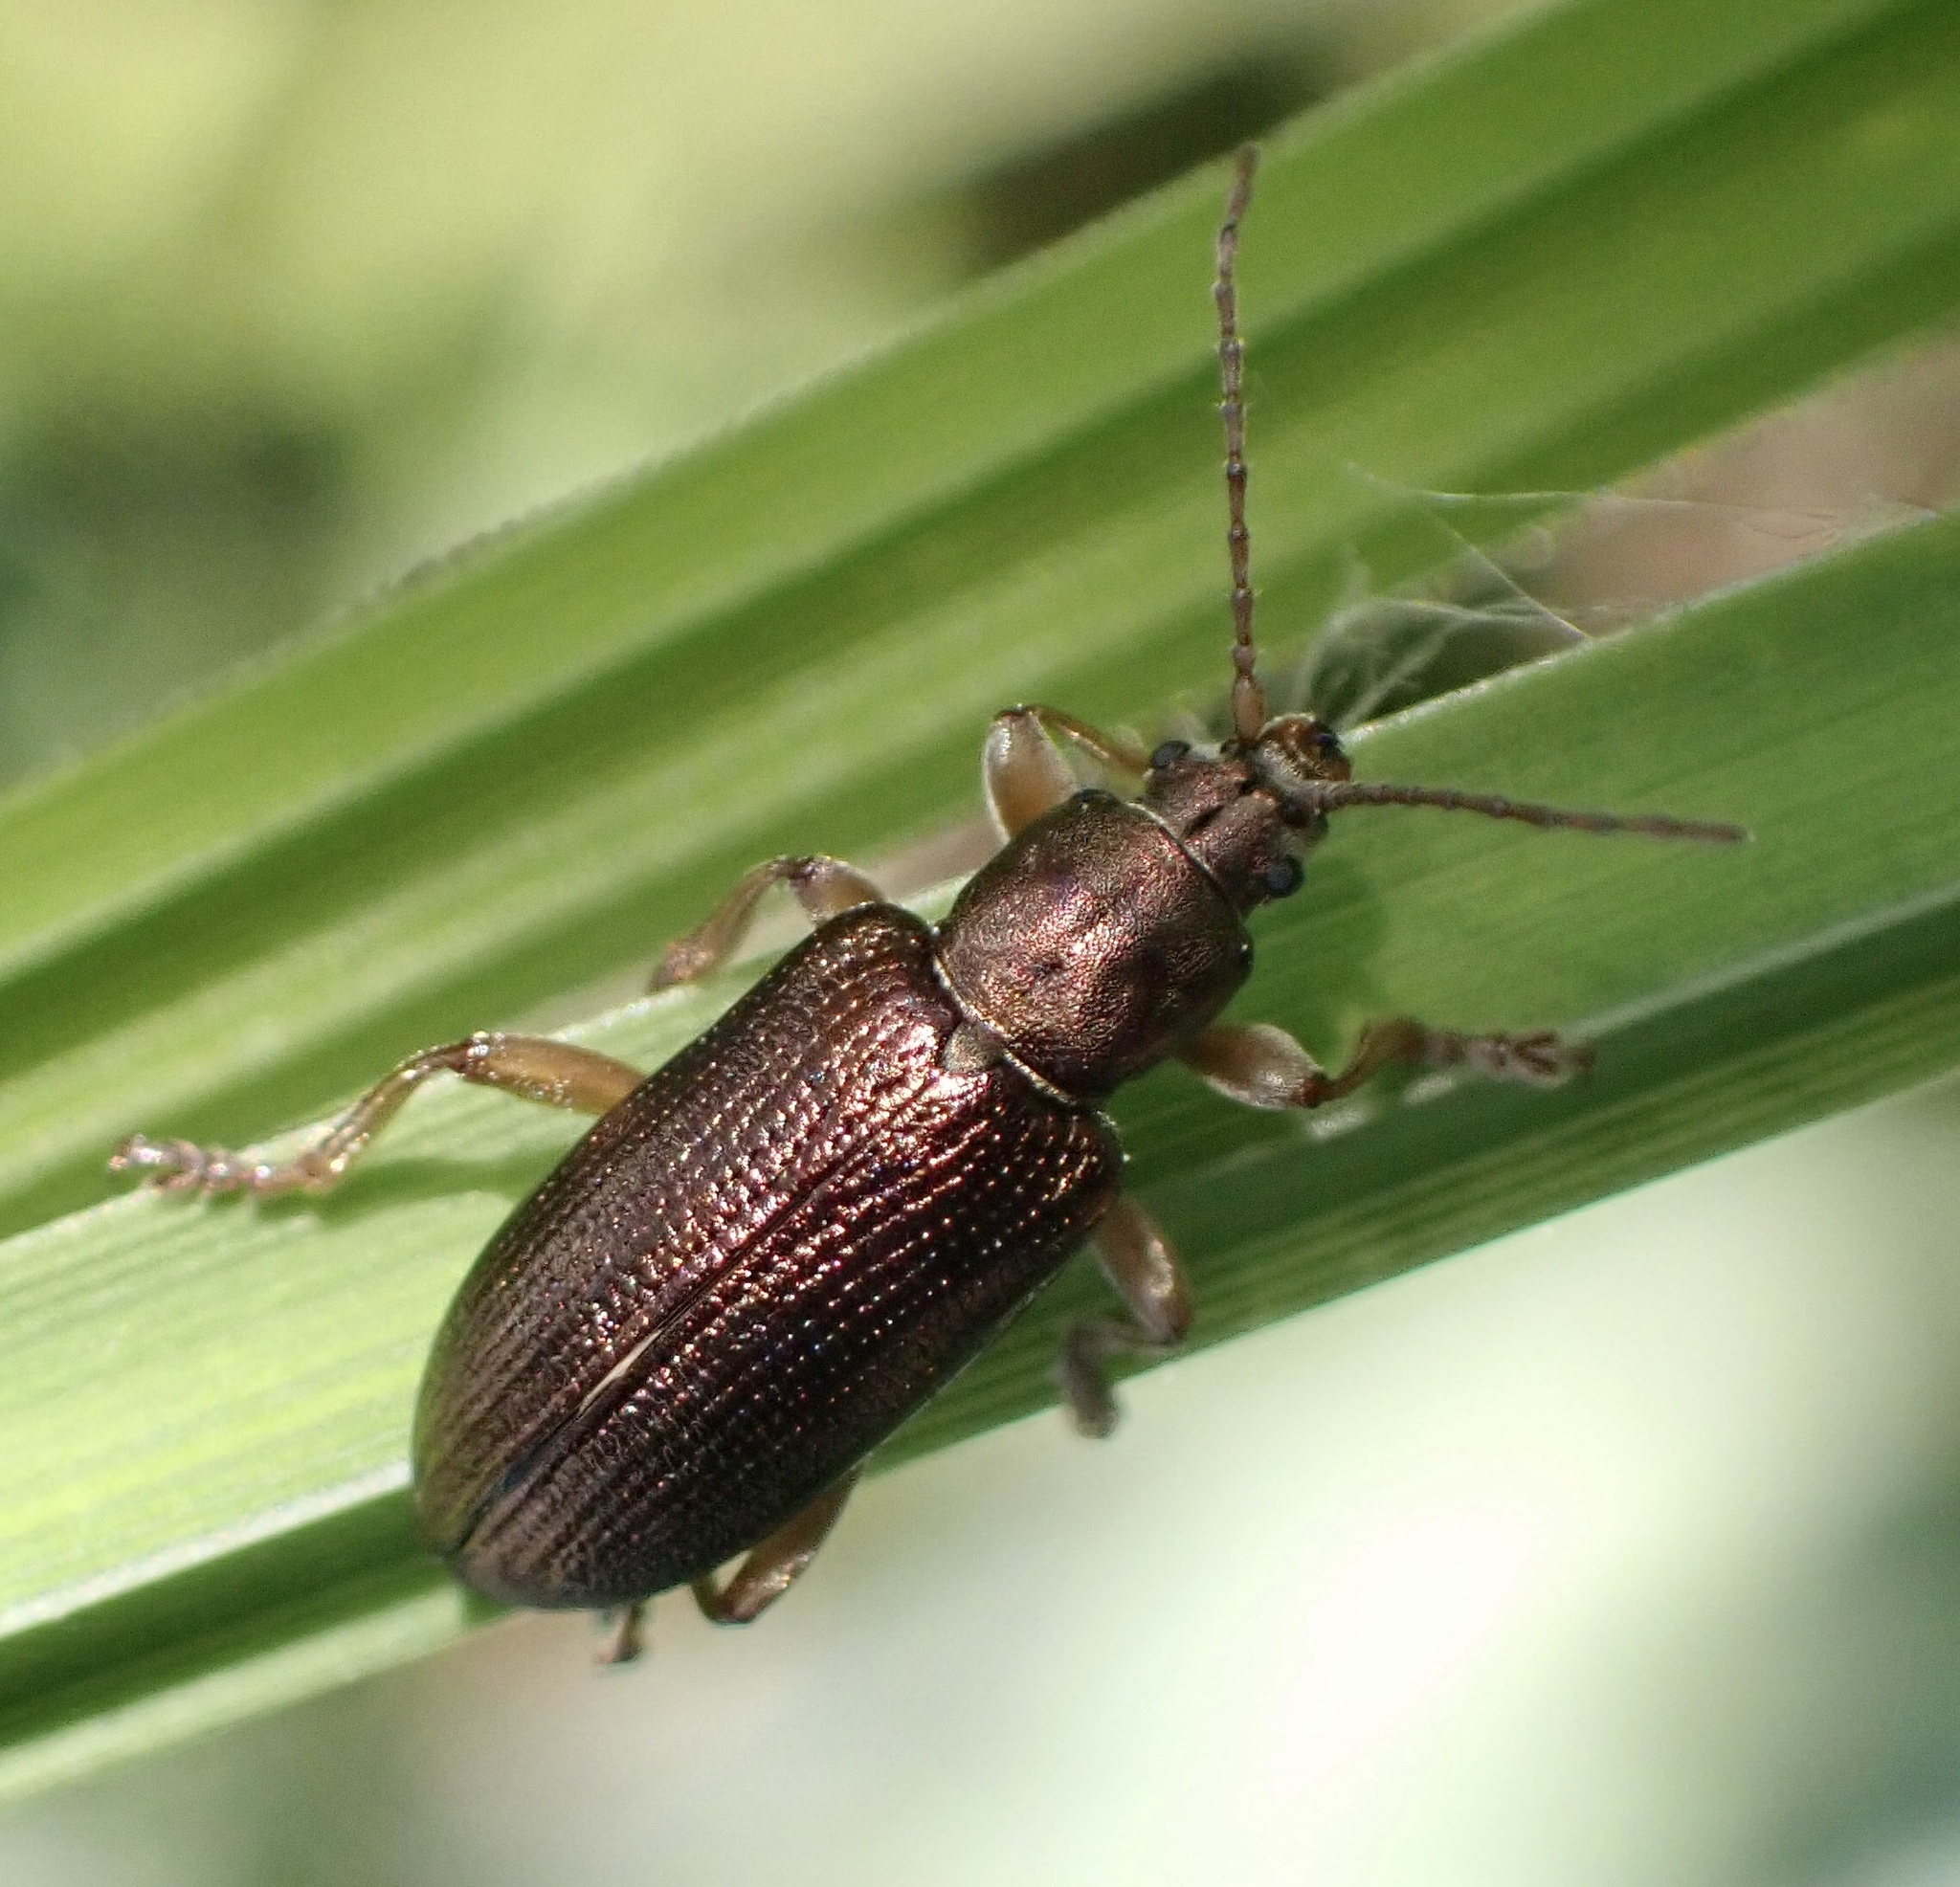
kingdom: Animalia
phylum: Arthropoda
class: Insecta
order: Coleoptera
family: Chrysomelidae
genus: Plateumaris
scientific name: Plateumaris rustica
